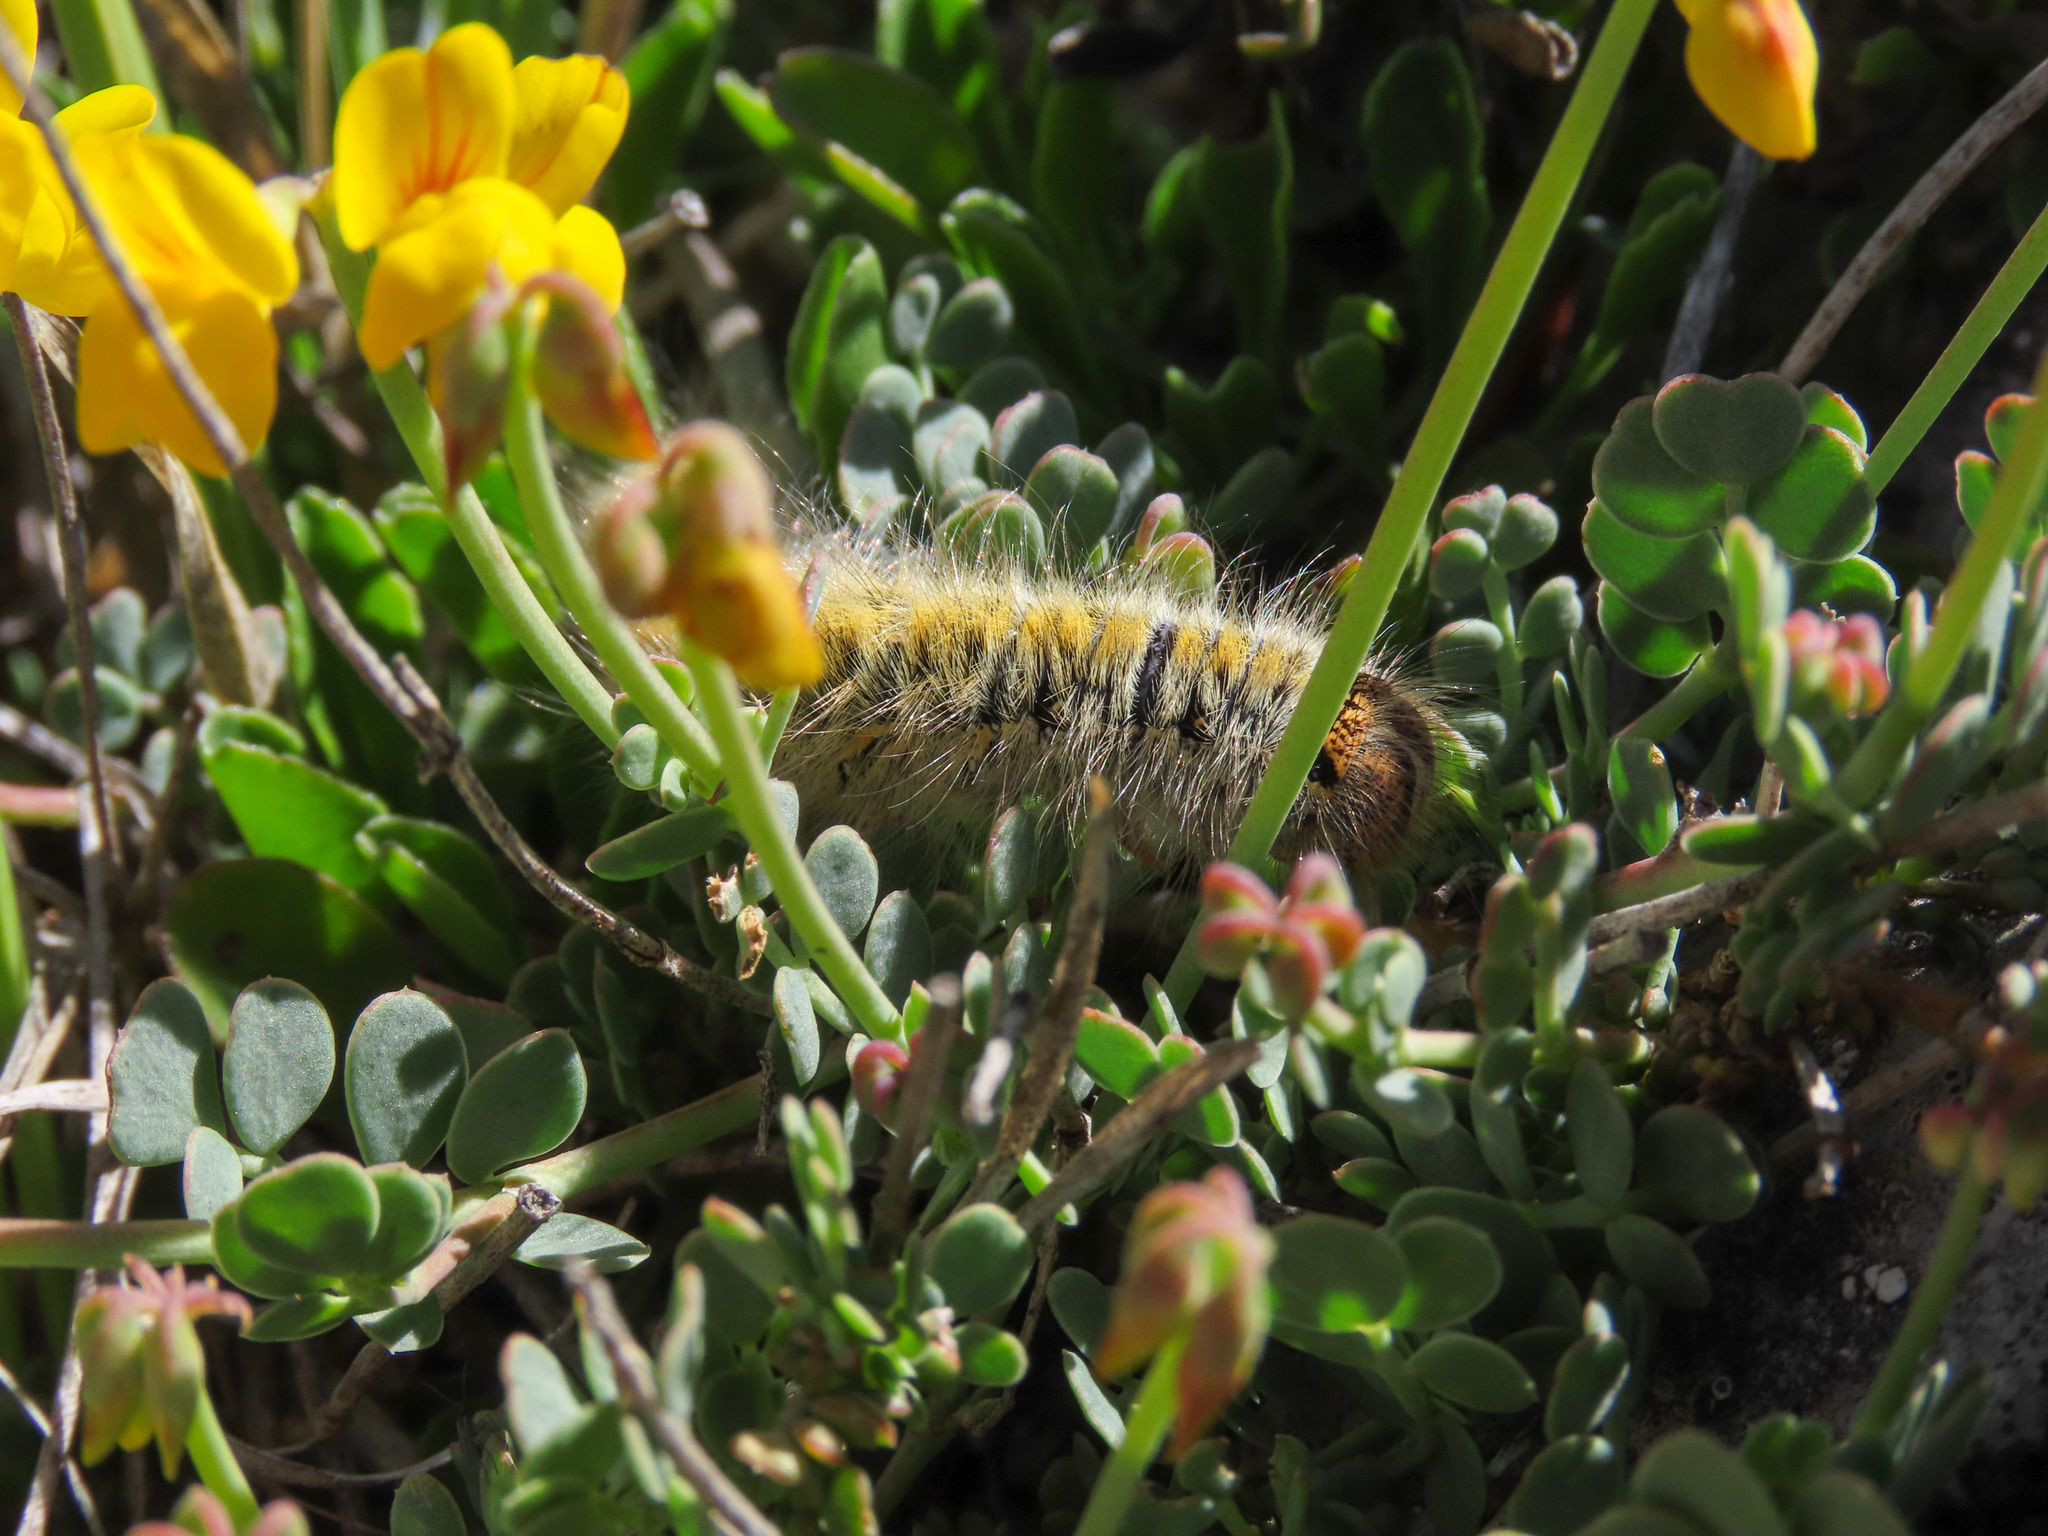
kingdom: Animalia
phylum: Arthropoda
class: Insecta
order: Lepidoptera
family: Lasiocampidae
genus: Lasiocampa
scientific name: Lasiocampa trifolii
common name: Grass eggar
